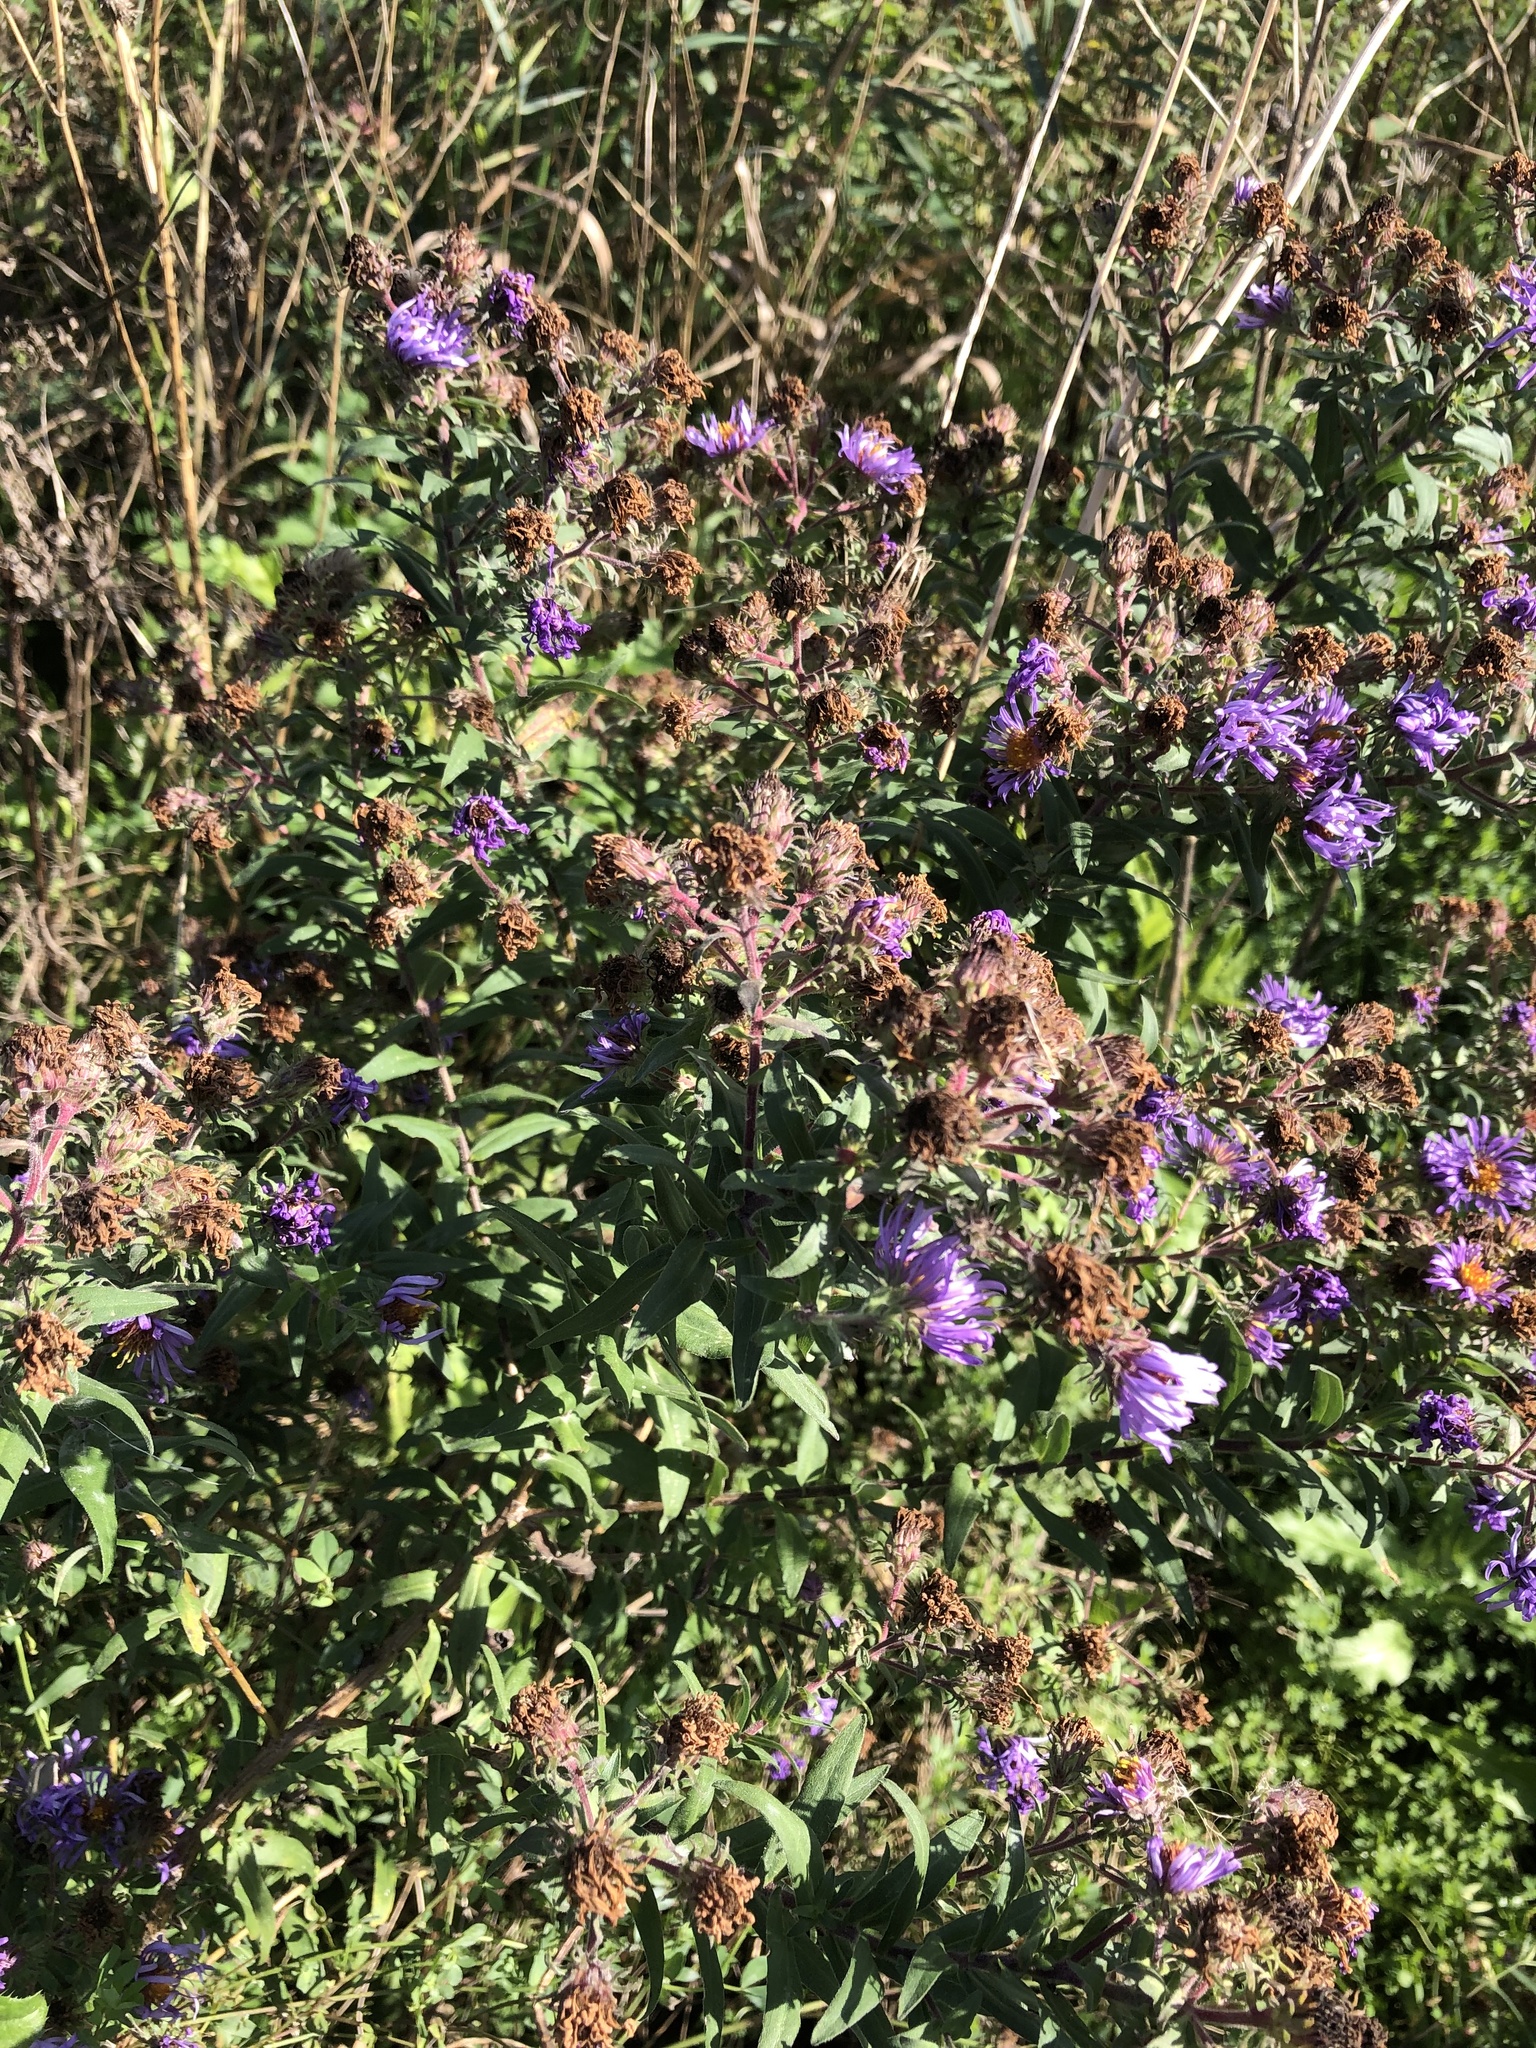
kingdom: Plantae
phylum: Tracheophyta
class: Magnoliopsida
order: Asterales
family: Asteraceae
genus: Symphyotrichum
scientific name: Symphyotrichum novae-angliae
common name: Michaelmas daisy
